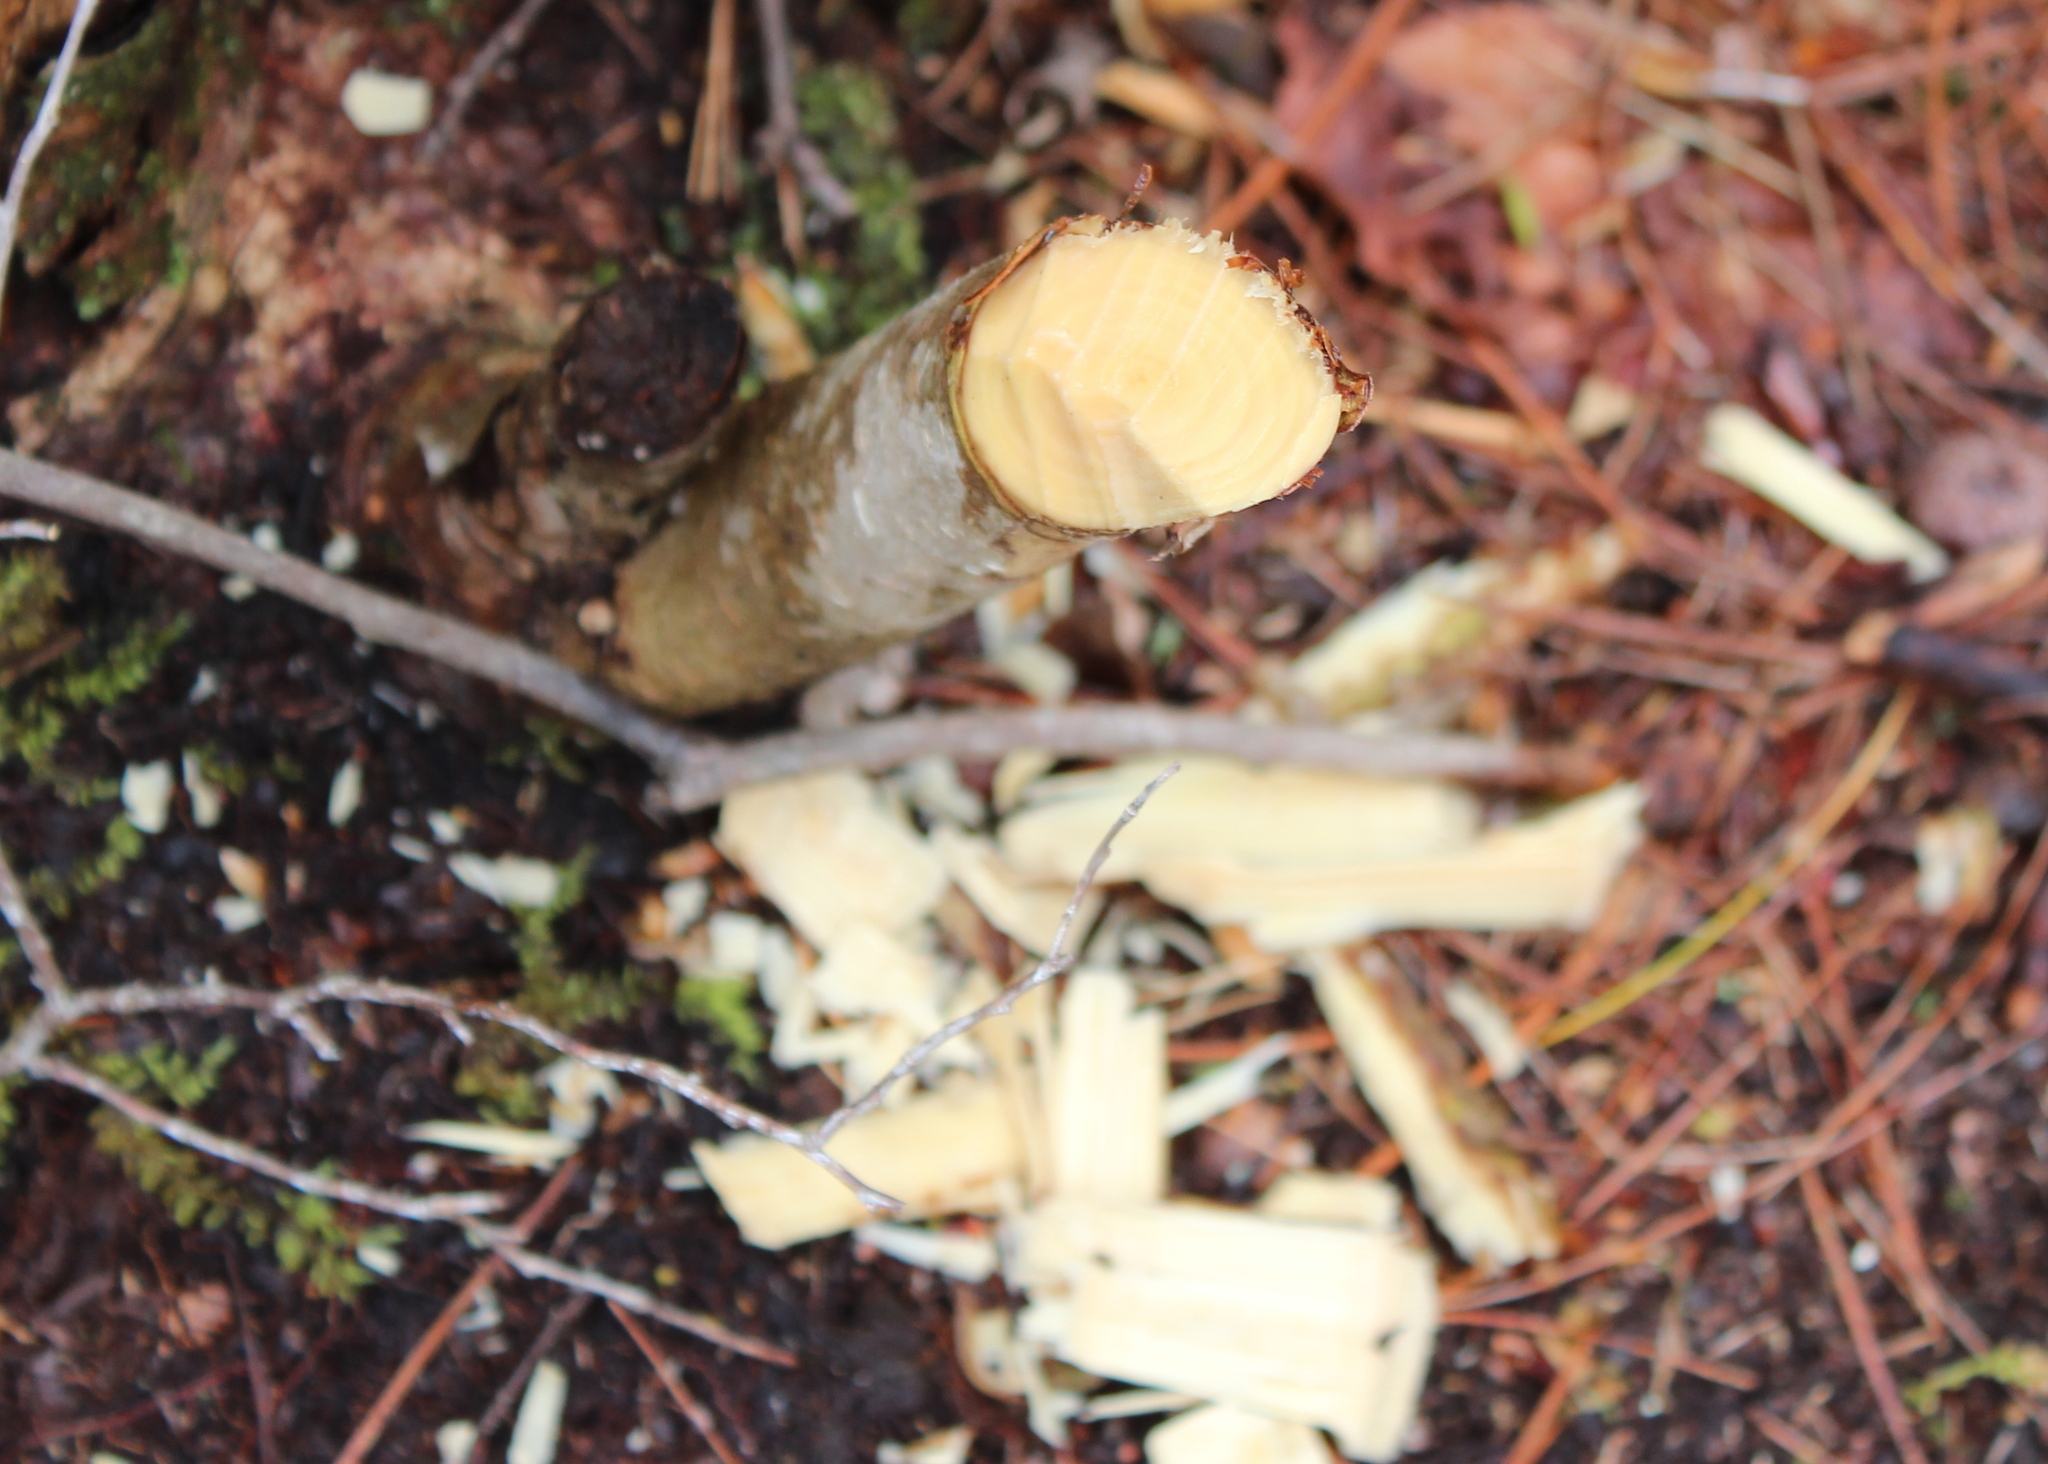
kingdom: Animalia
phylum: Chordata
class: Mammalia
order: Rodentia
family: Castoridae
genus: Castor
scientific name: Castor canadensis
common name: American beaver
